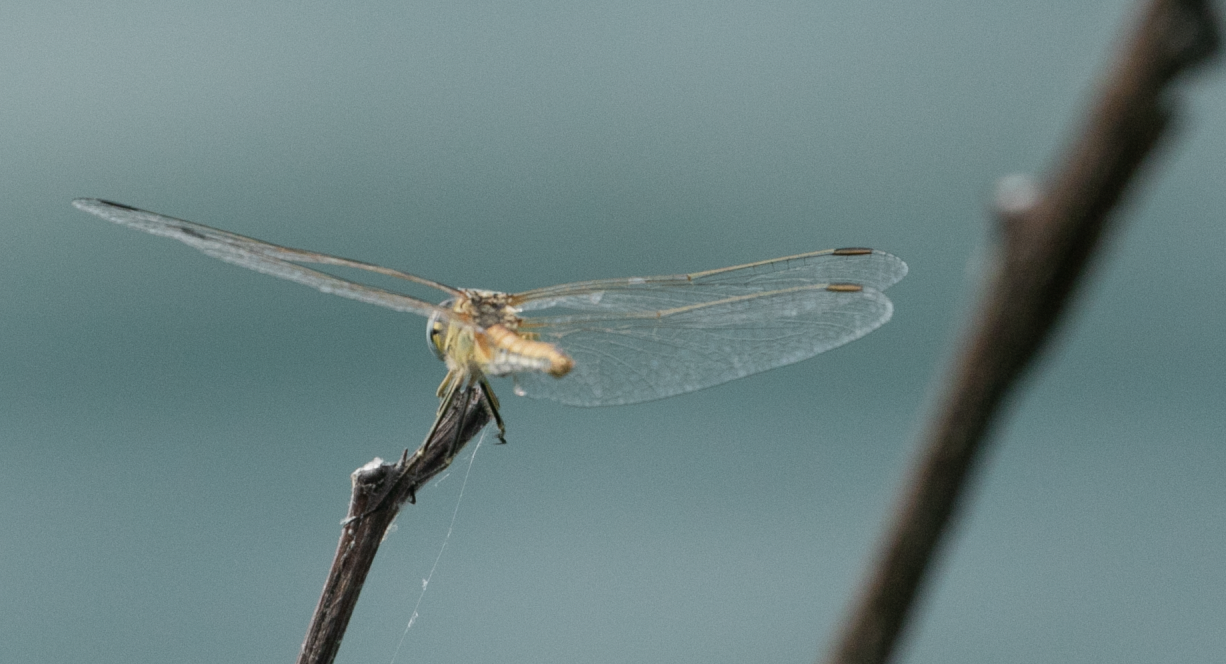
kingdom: Animalia
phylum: Arthropoda
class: Insecta
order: Odonata
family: Libellulidae
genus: Sympetrum
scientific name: Sympetrum fonscolombii
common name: Red-veined darter
